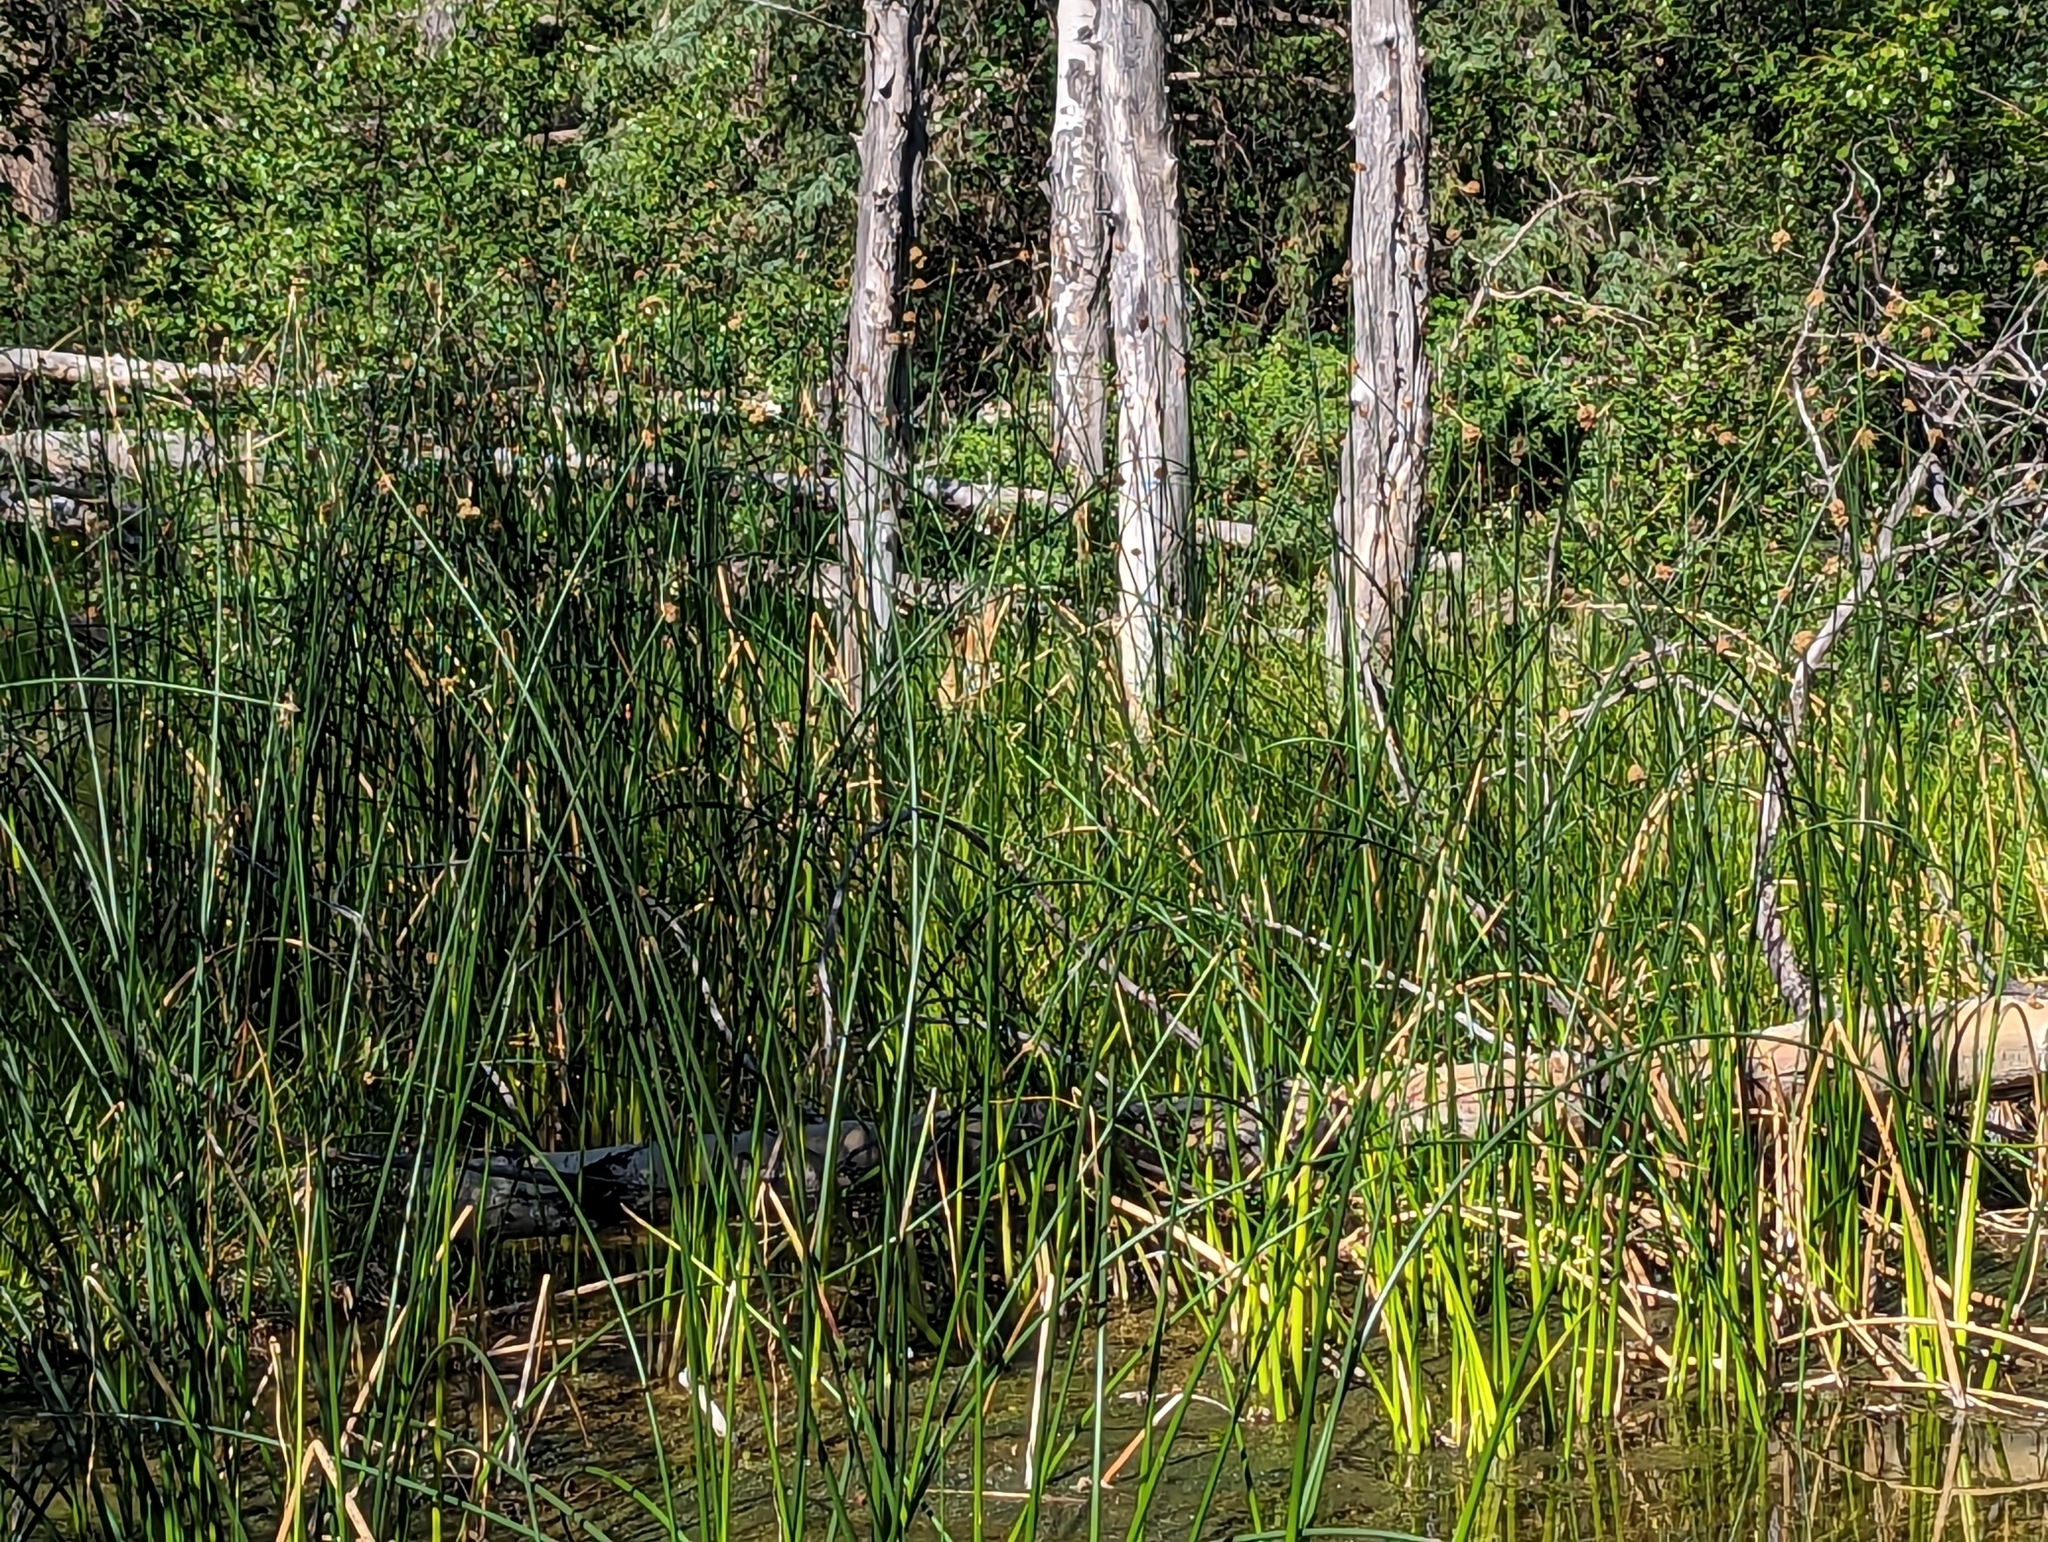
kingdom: Plantae
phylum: Tracheophyta
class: Liliopsida
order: Poales
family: Cyperaceae
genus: Schoenoplectus
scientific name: Schoenoplectus acutus
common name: Hardstem bulrush
